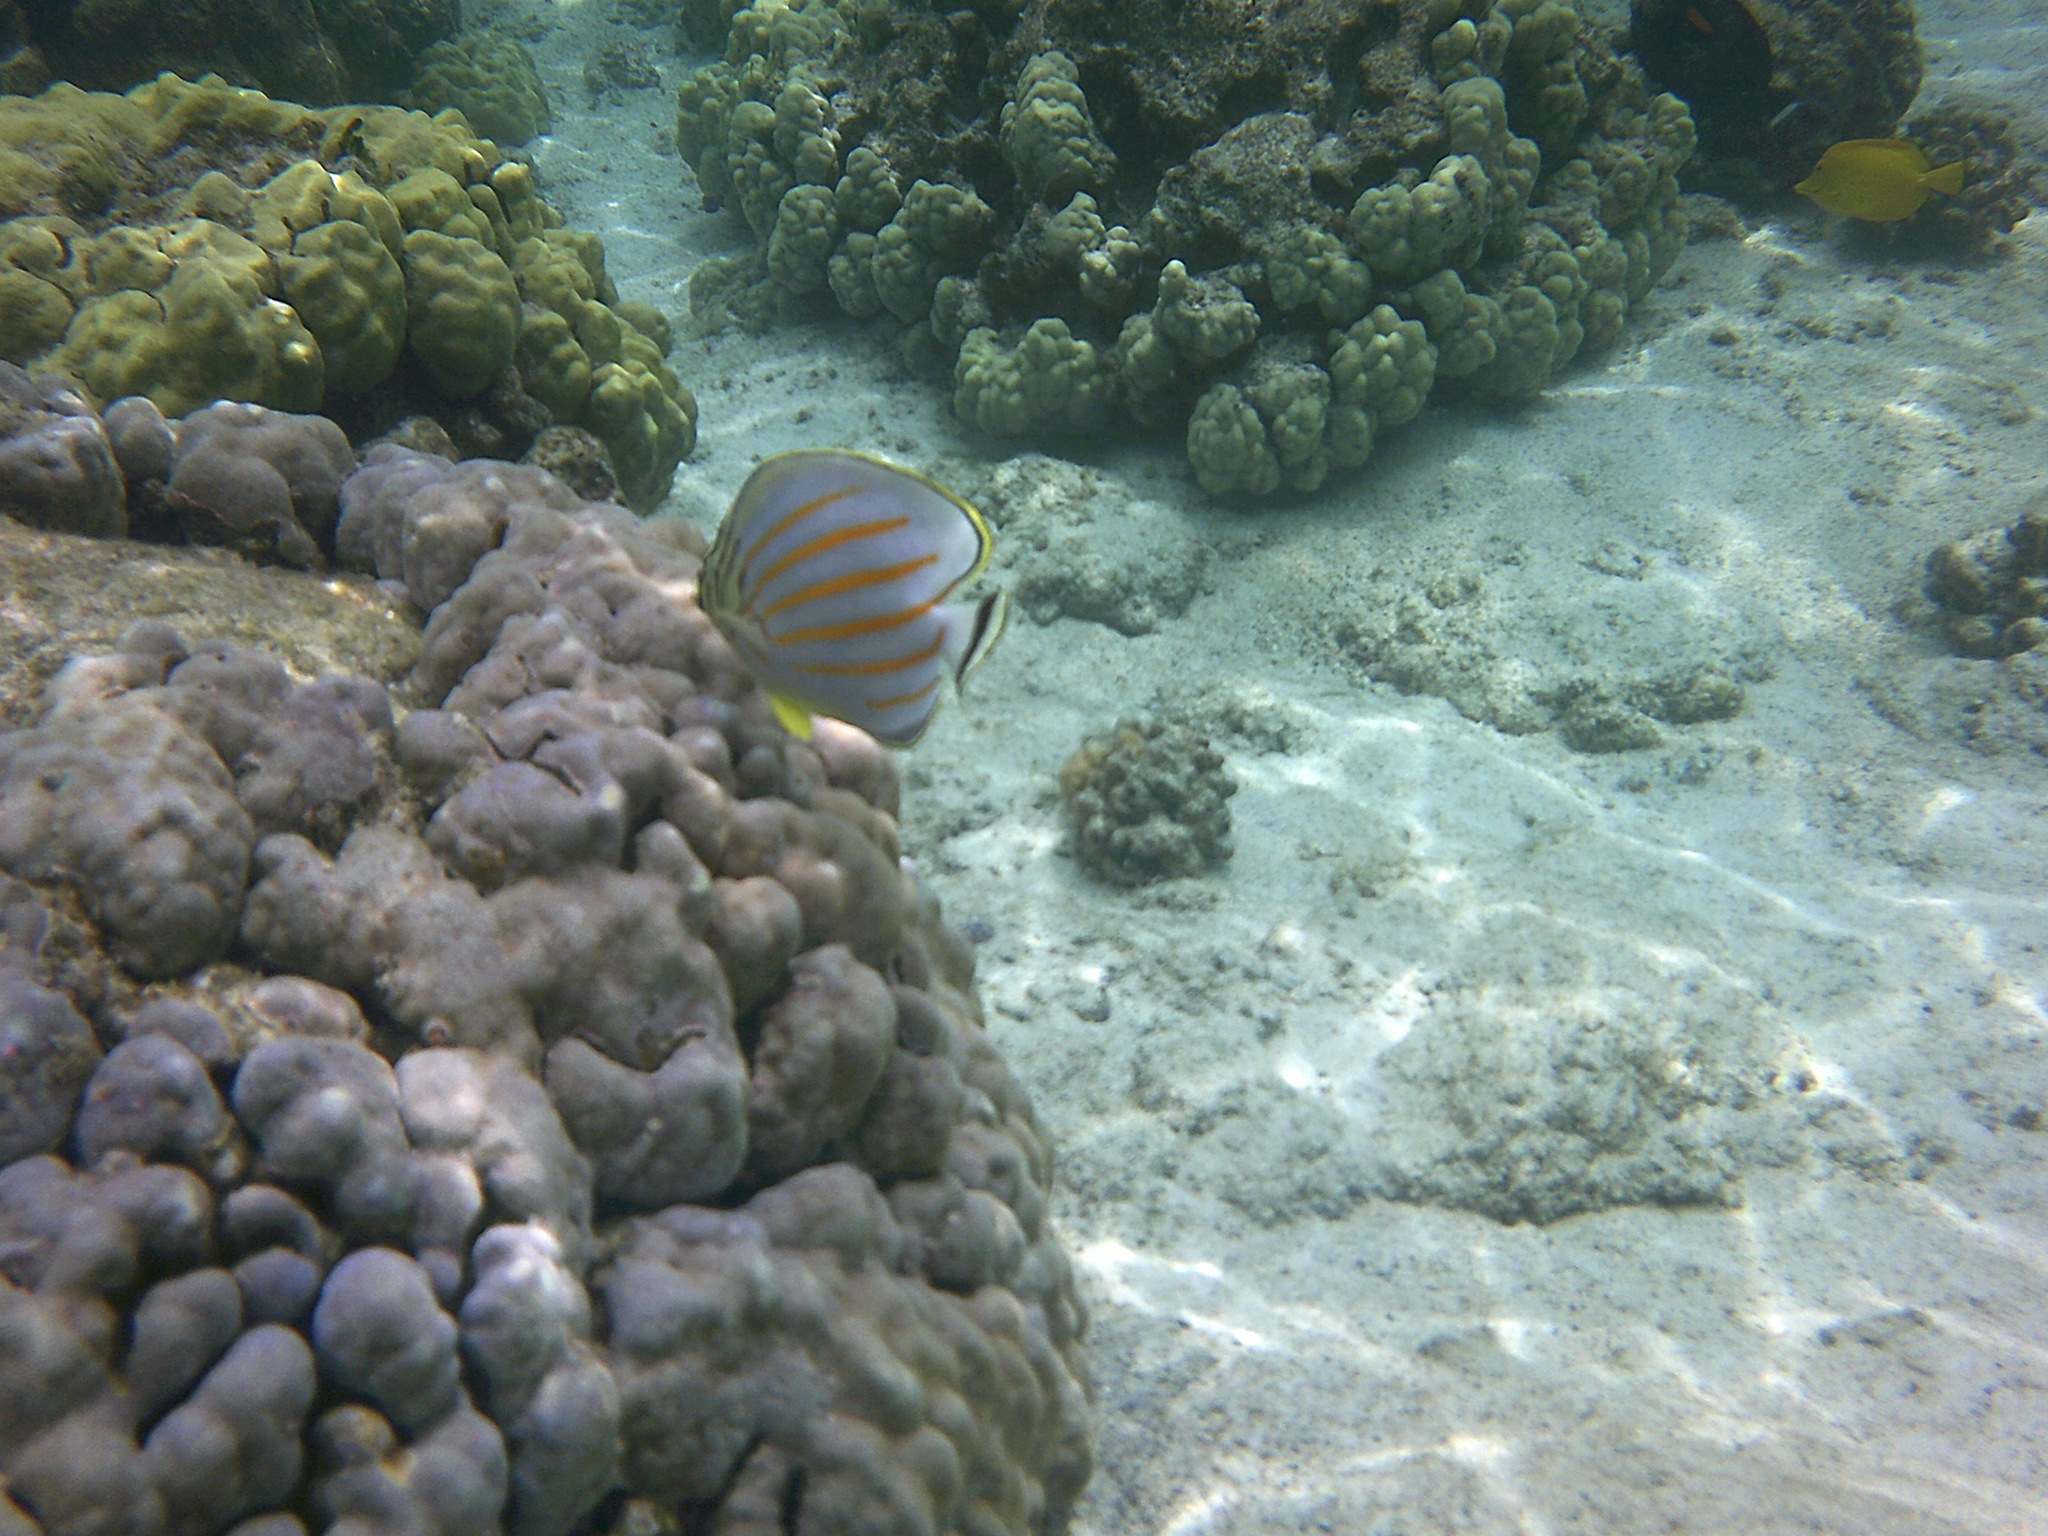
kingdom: Animalia
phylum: Chordata
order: Perciformes
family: Chaetodontidae
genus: Chaetodon
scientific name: Chaetodon ornatissimus
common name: Ornate butterflyfish
